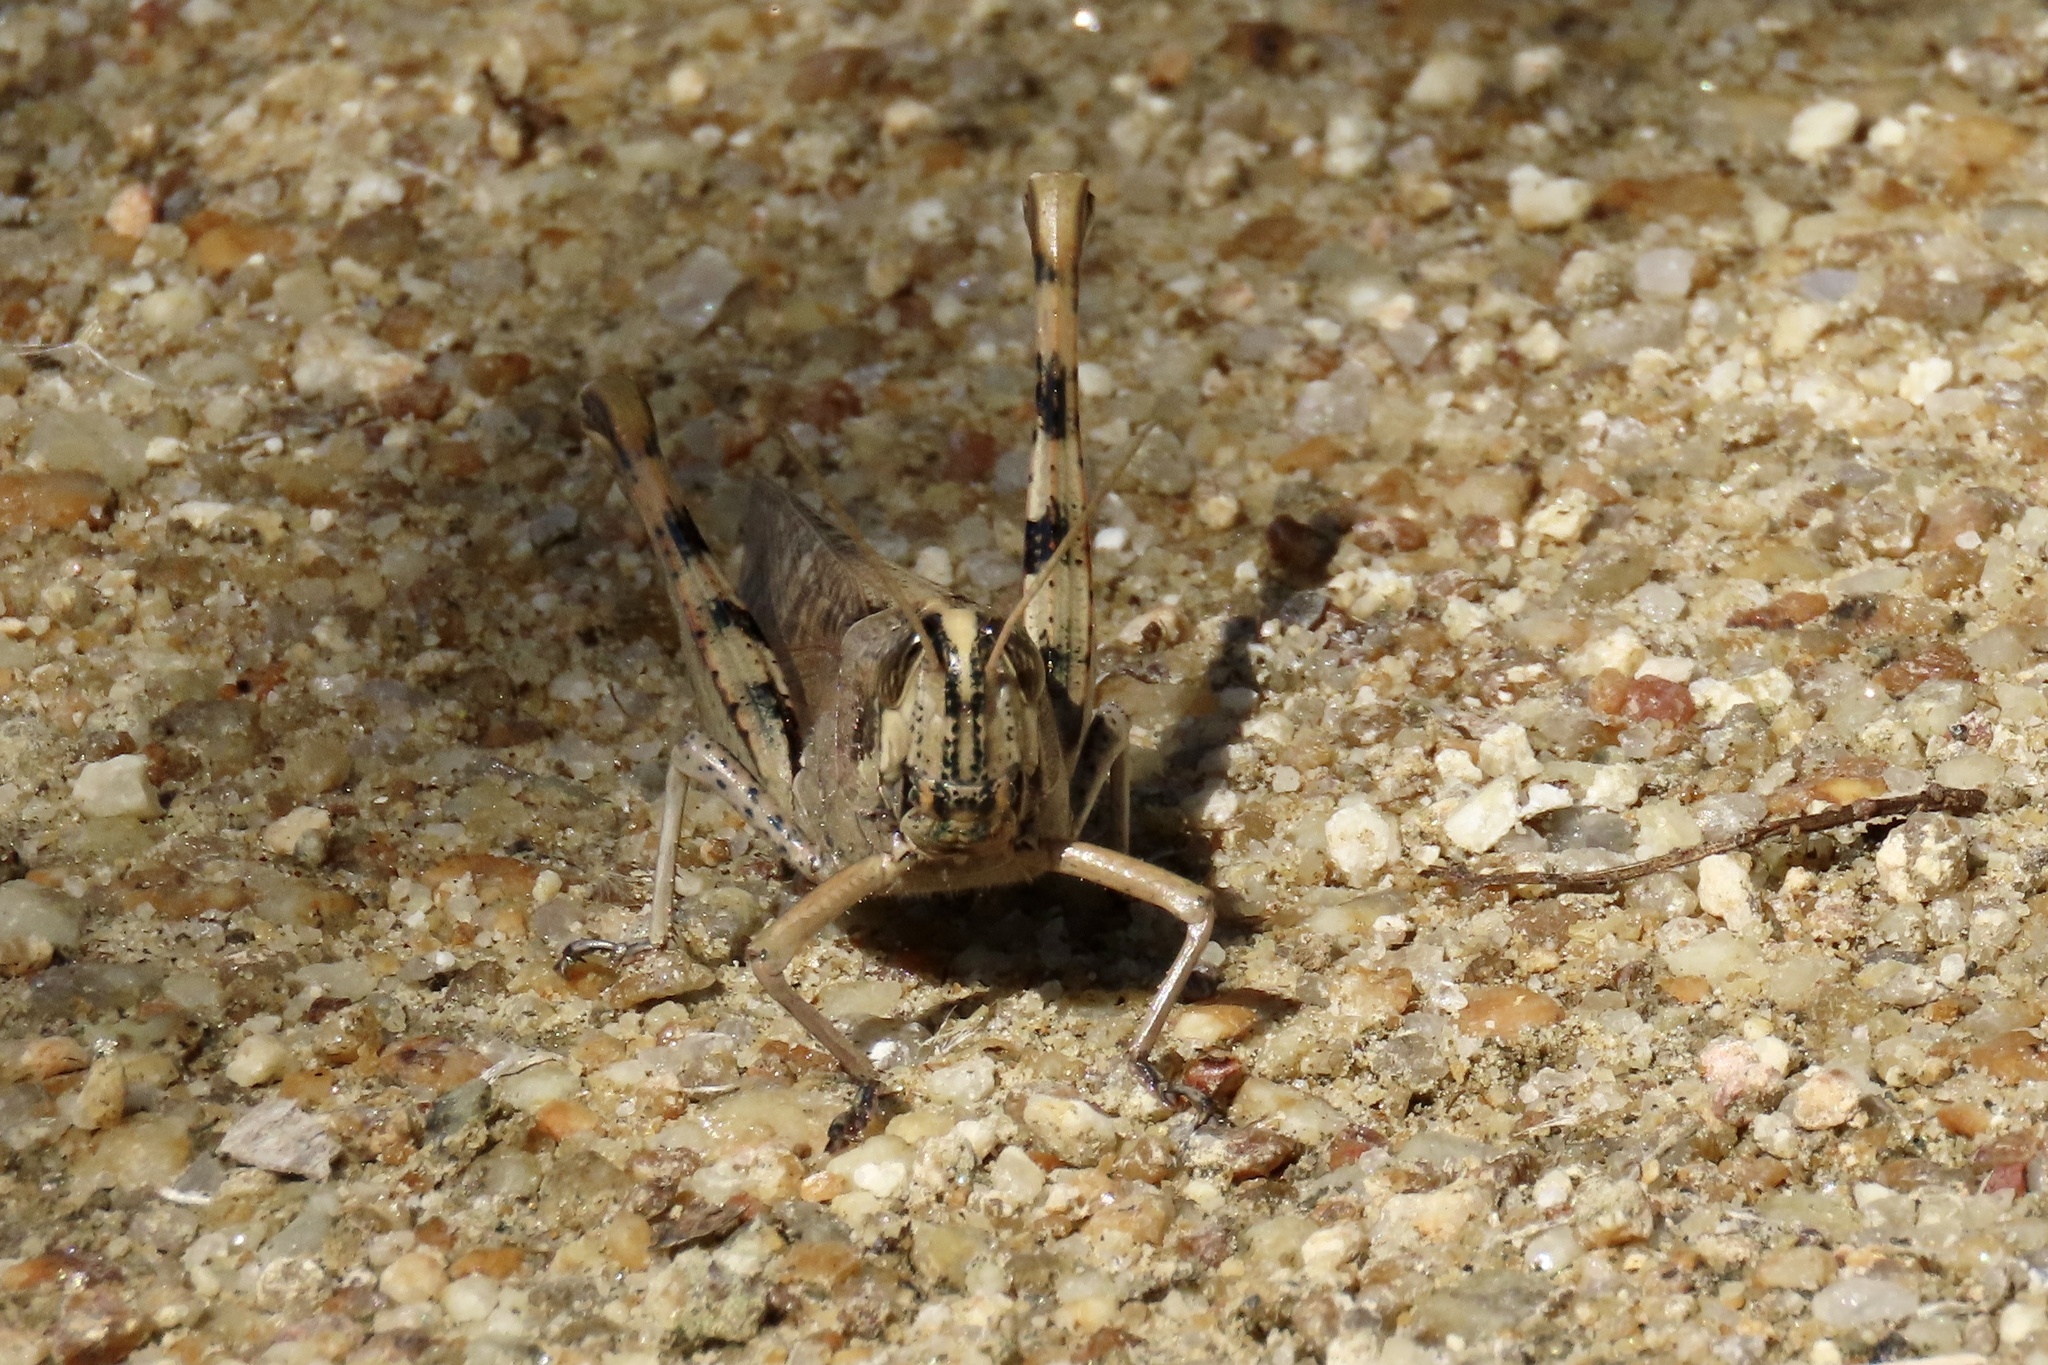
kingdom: Animalia
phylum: Arthropoda
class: Insecta
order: Orthoptera
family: Acrididae
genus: Schistocerca
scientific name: Schistocerca nitens
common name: Vagrant grasshopper
